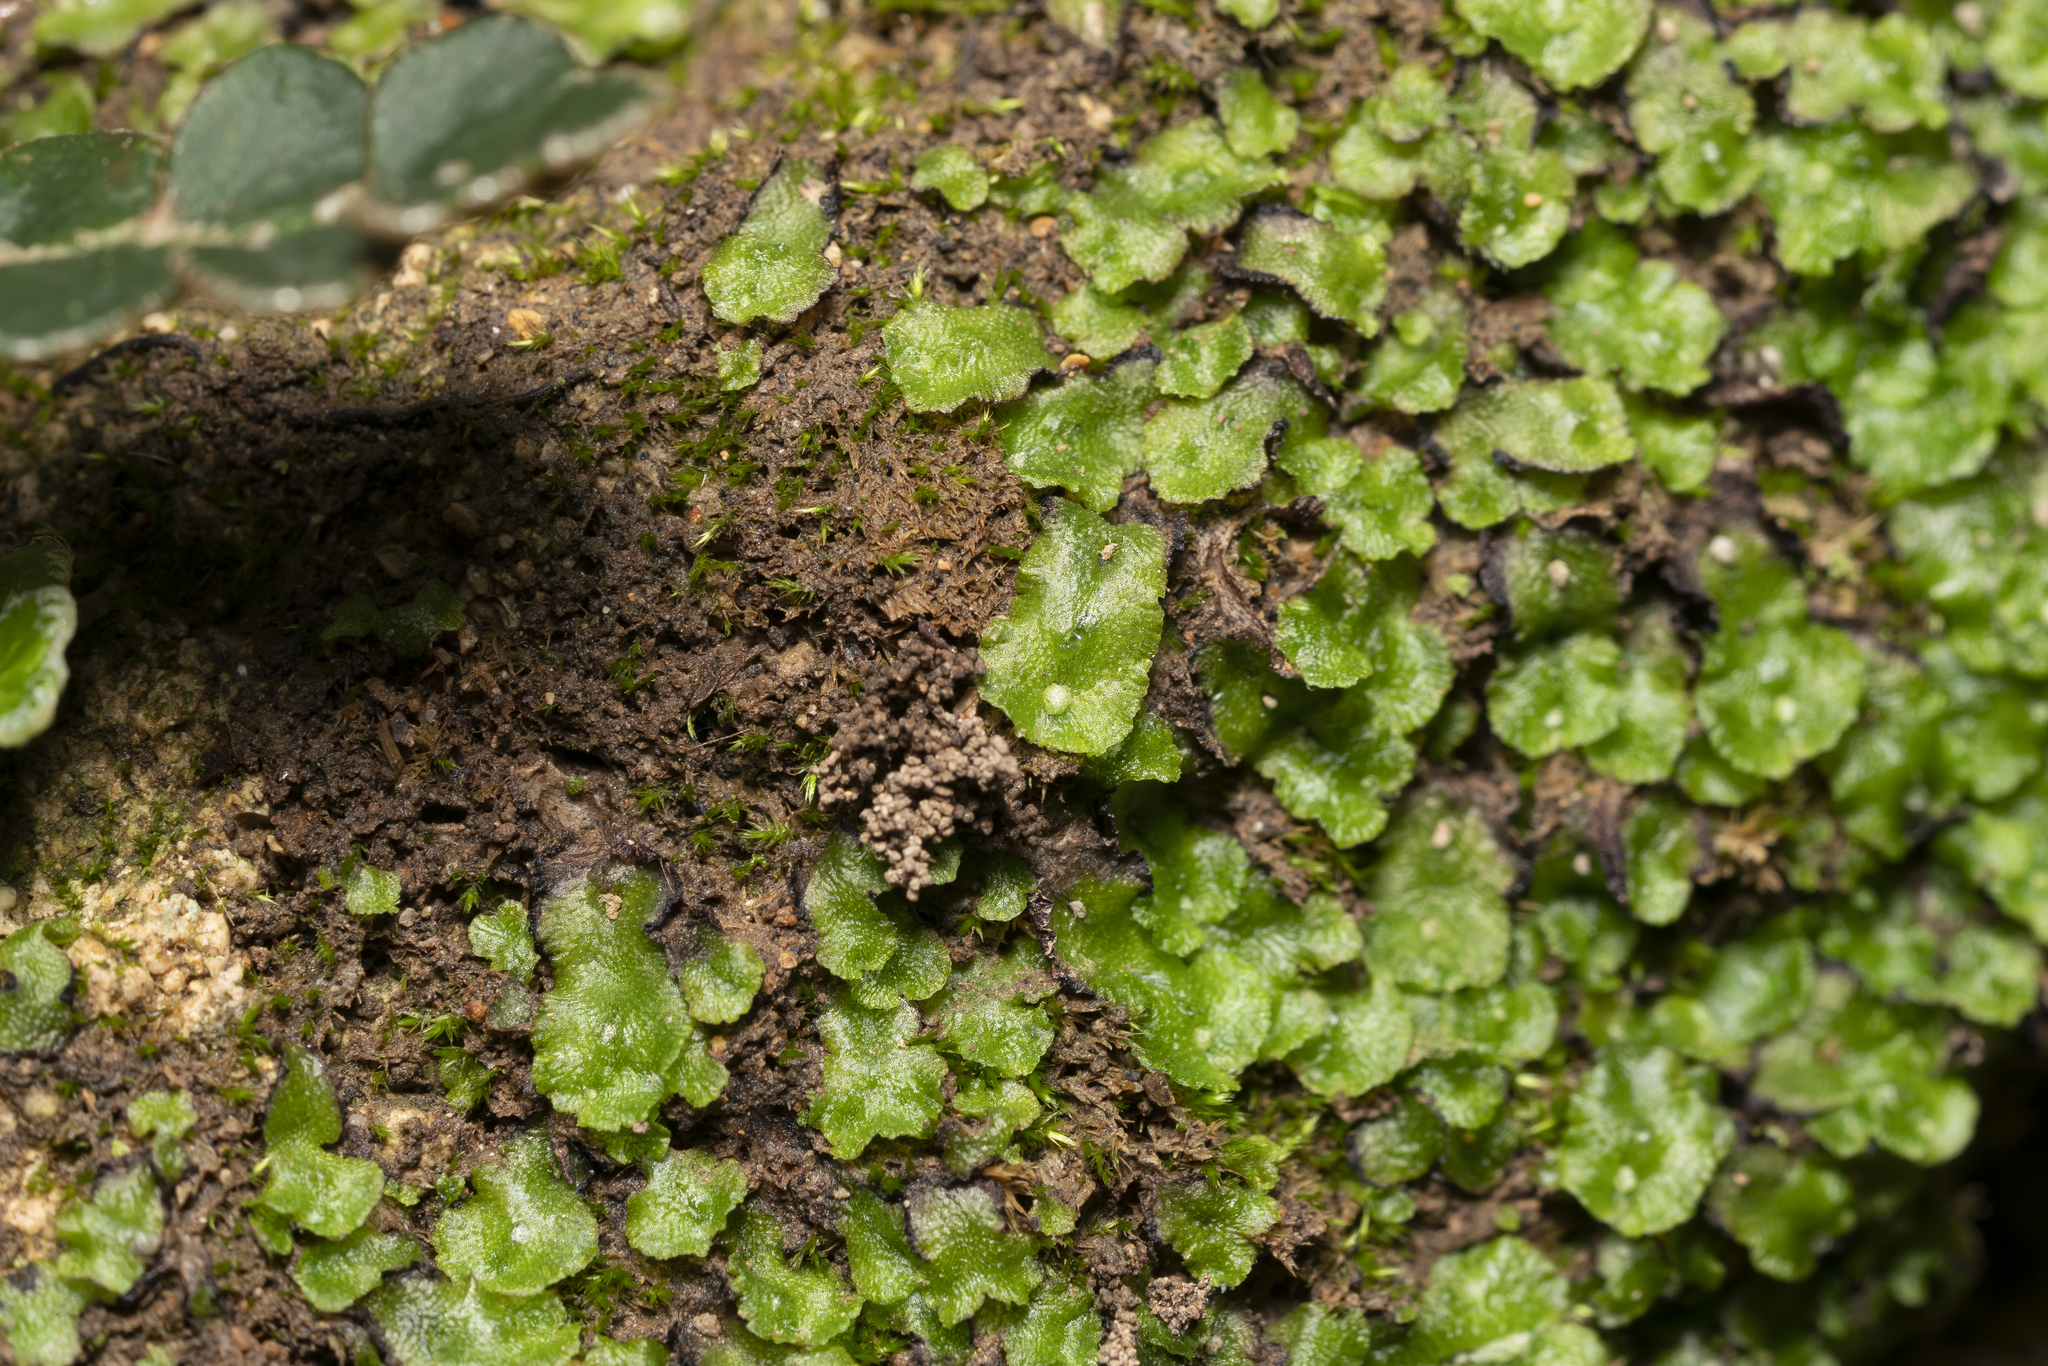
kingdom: Plantae
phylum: Marchantiophyta
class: Marchantiopsida
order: Marchantiales
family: Cleveaceae
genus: Clevea
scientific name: Clevea spathysii
